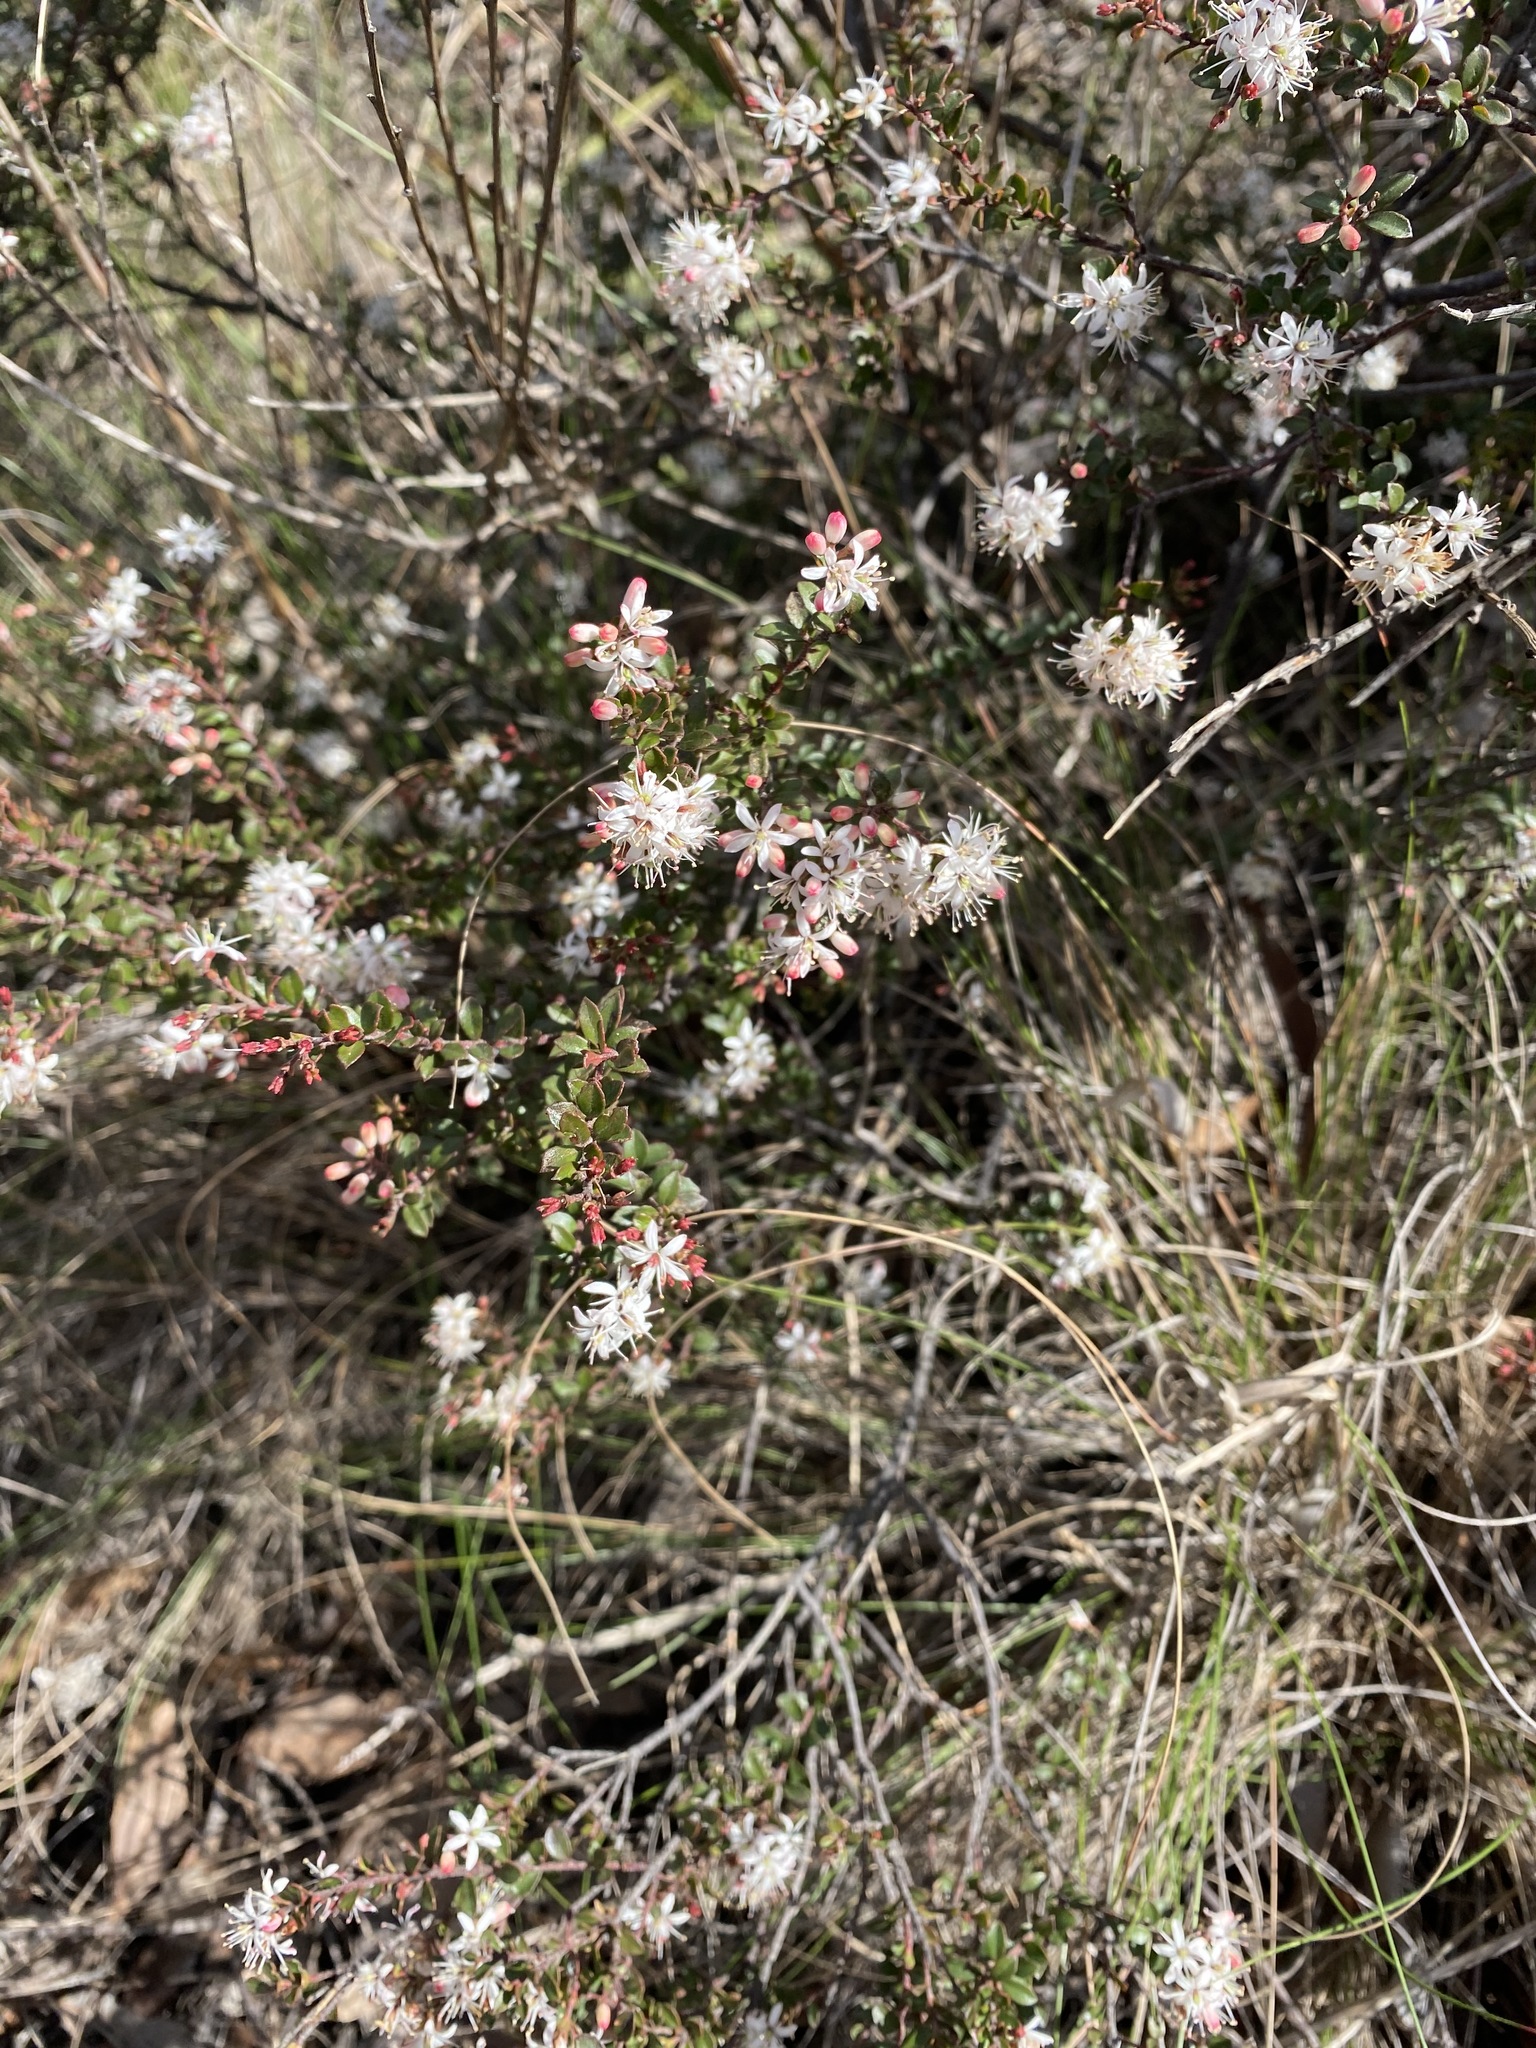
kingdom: Plantae
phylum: Tracheophyta
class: Magnoliopsida
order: Sapindales
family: Rutaceae
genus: Leionema
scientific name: Leionema lamprophyllum
